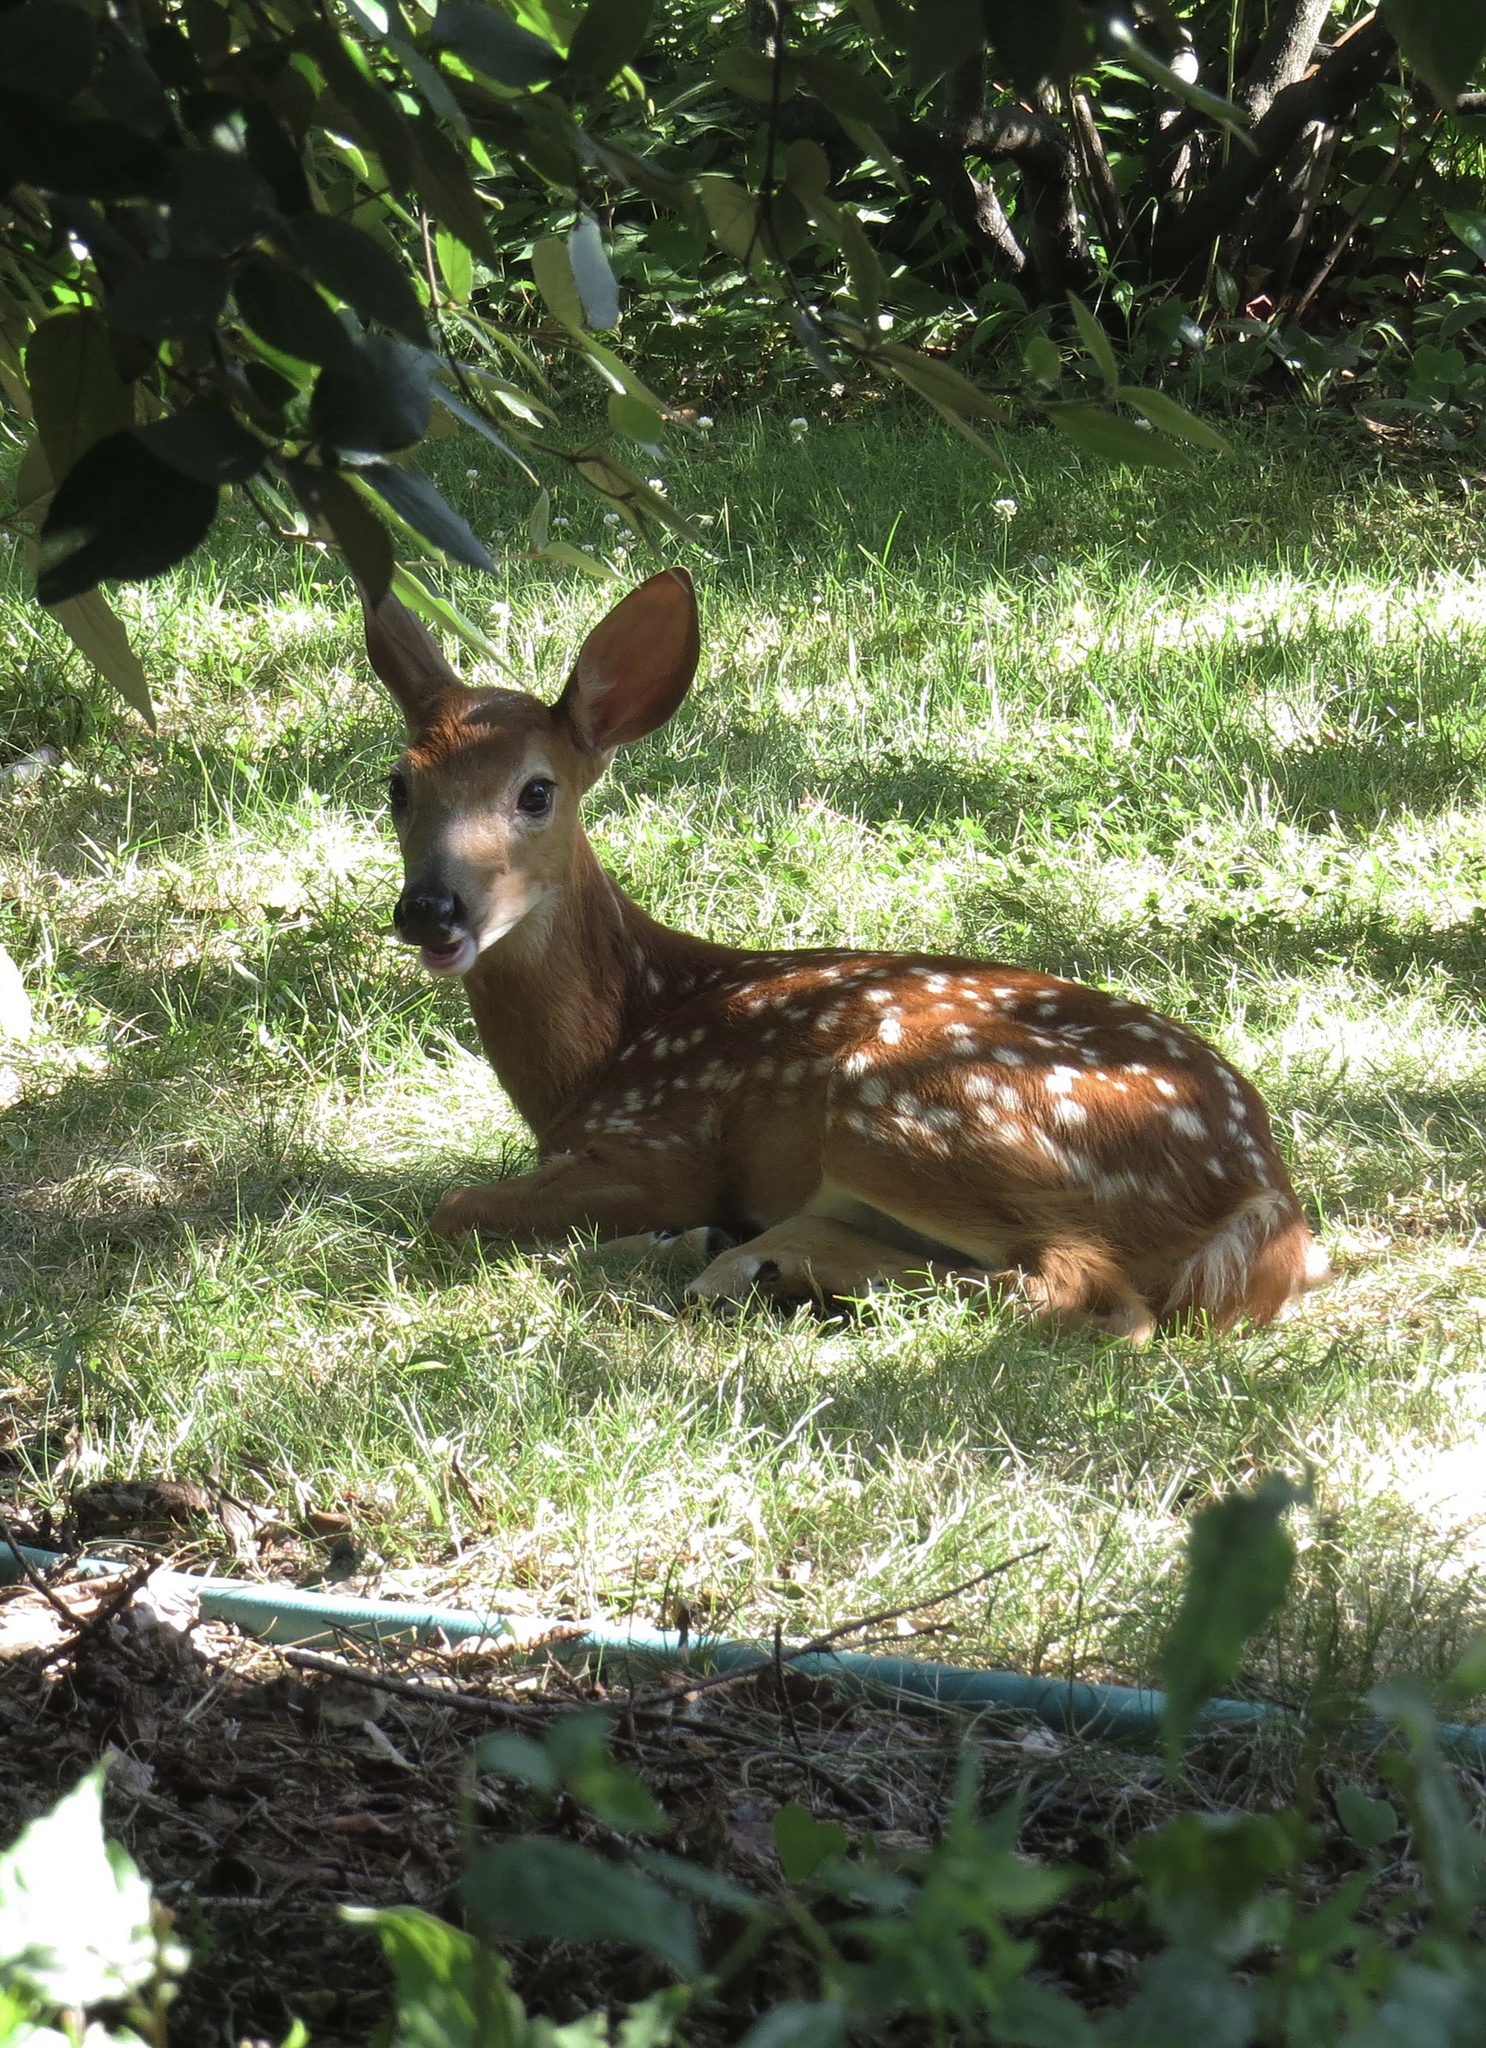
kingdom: Animalia
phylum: Chordata
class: Mammalia
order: Artiodactyla
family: Cervidae
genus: Odocoileus
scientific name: Odocoileus virginianus
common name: White-tailed deer
